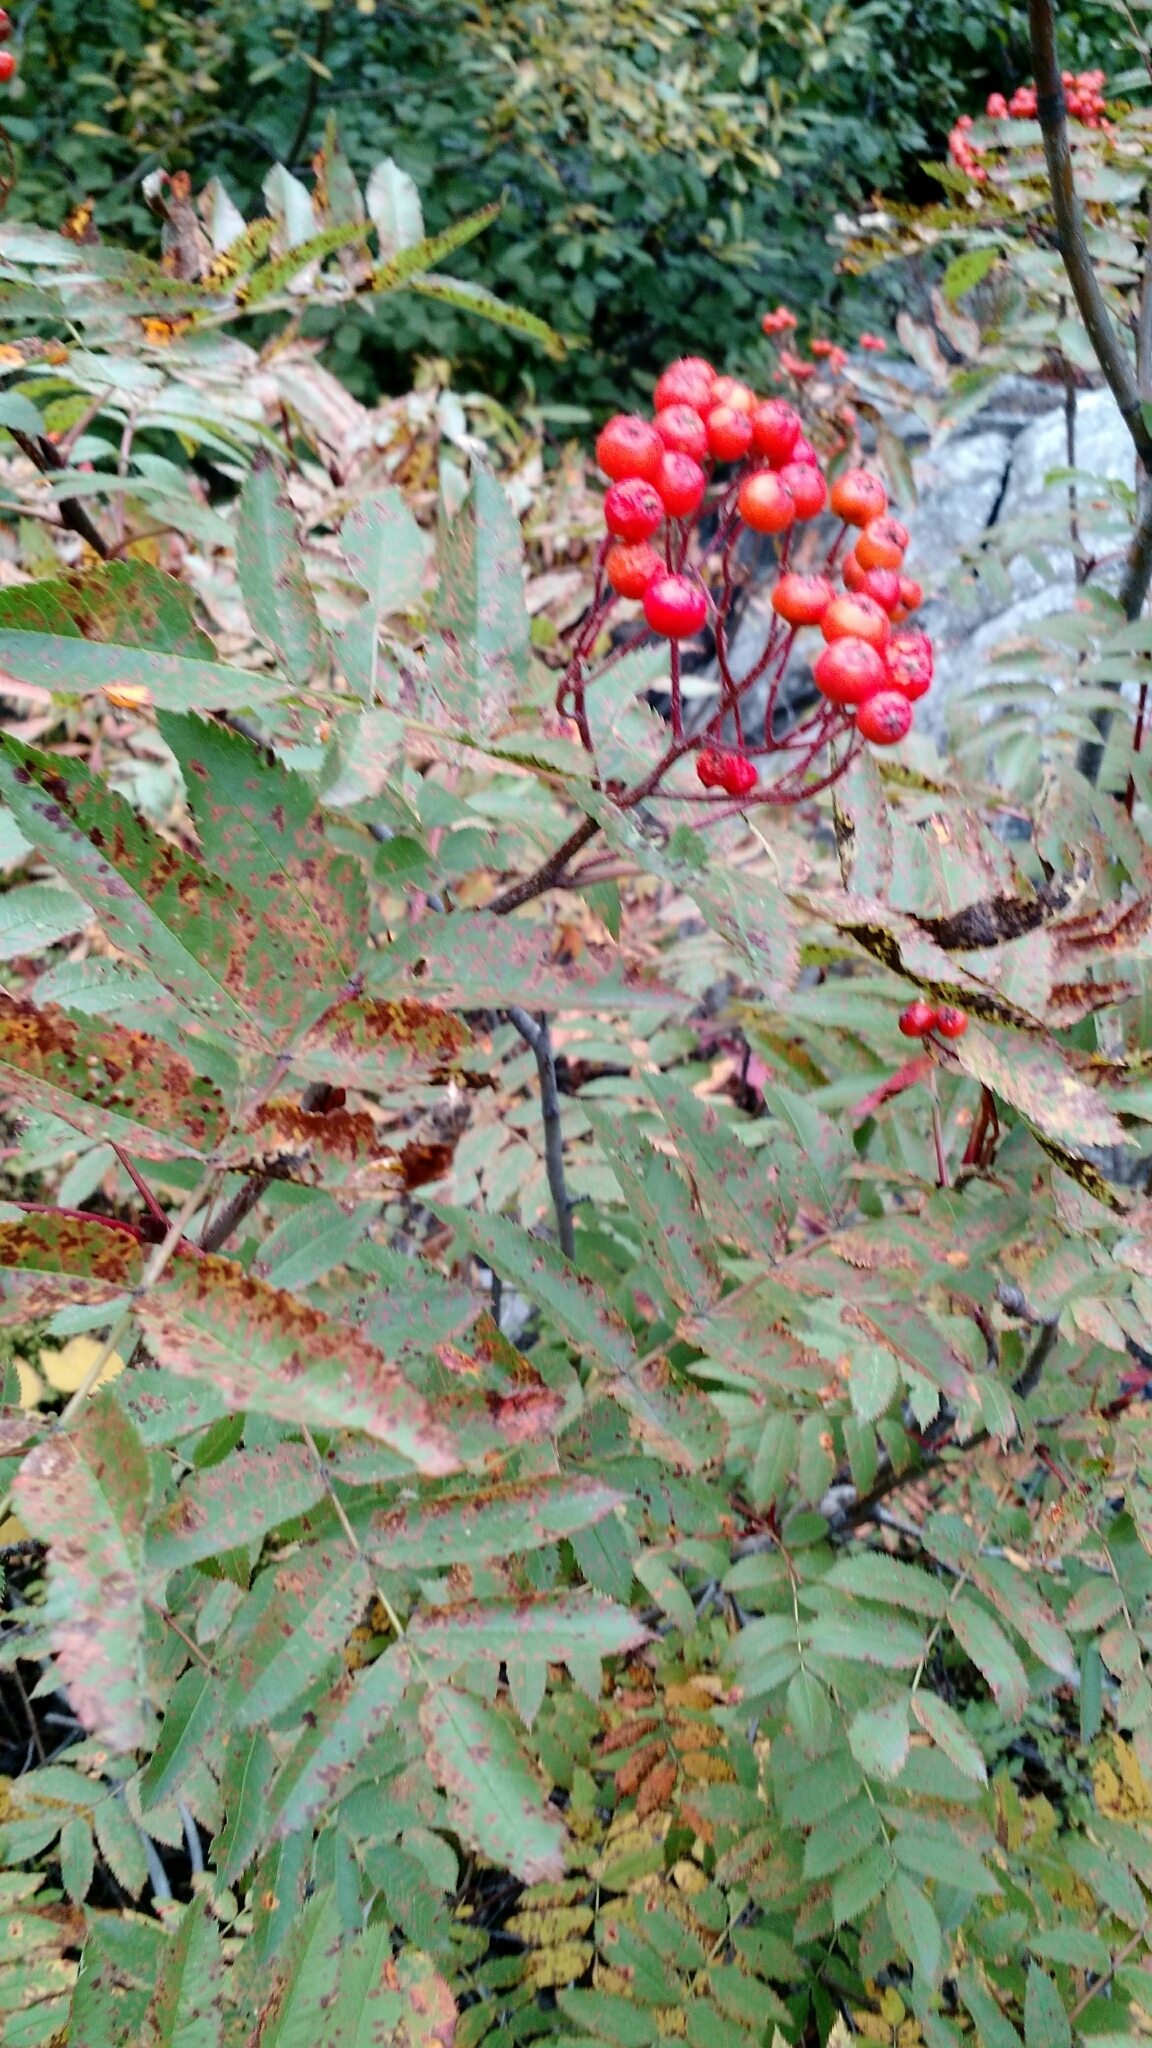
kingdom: Plantae
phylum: Tracheophyta
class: Magnoliopsida
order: Rosales
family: Rosaceae
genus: Sorbus
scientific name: Sorbus scopulina
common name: Greene's mountain-ash
